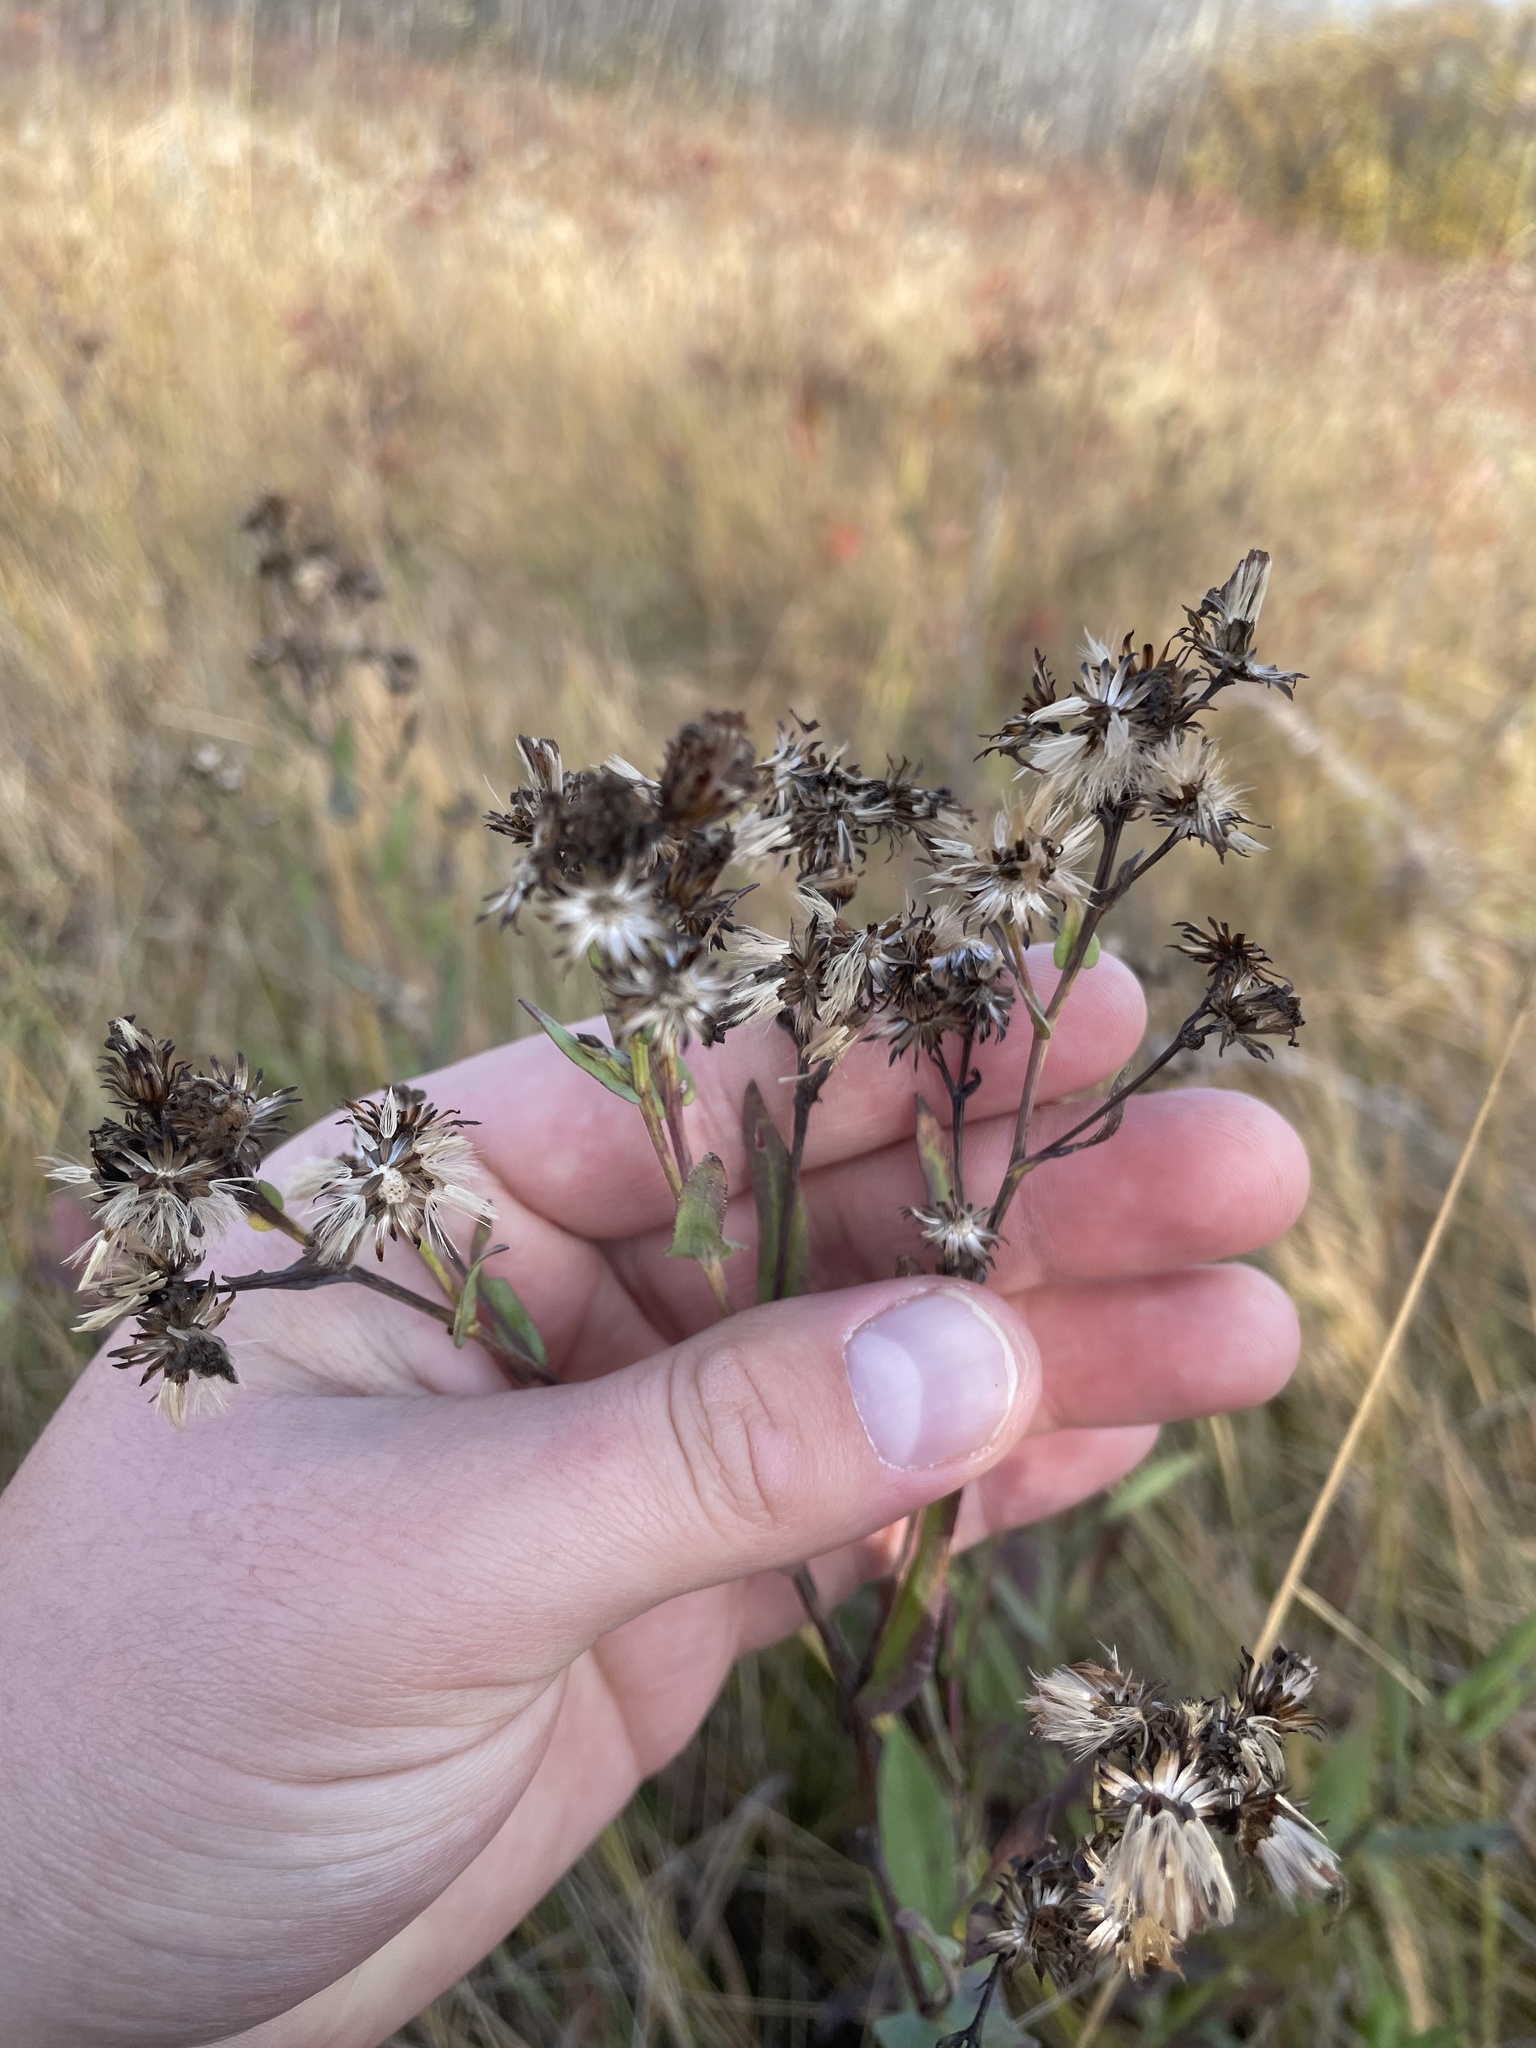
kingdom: Plantae
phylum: Tracheophyta
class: Magnoliopsida
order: Asterales
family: Asteraceae
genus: Symphyotrichum
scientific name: Symphyotrichum laeve
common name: Glaucous aster
